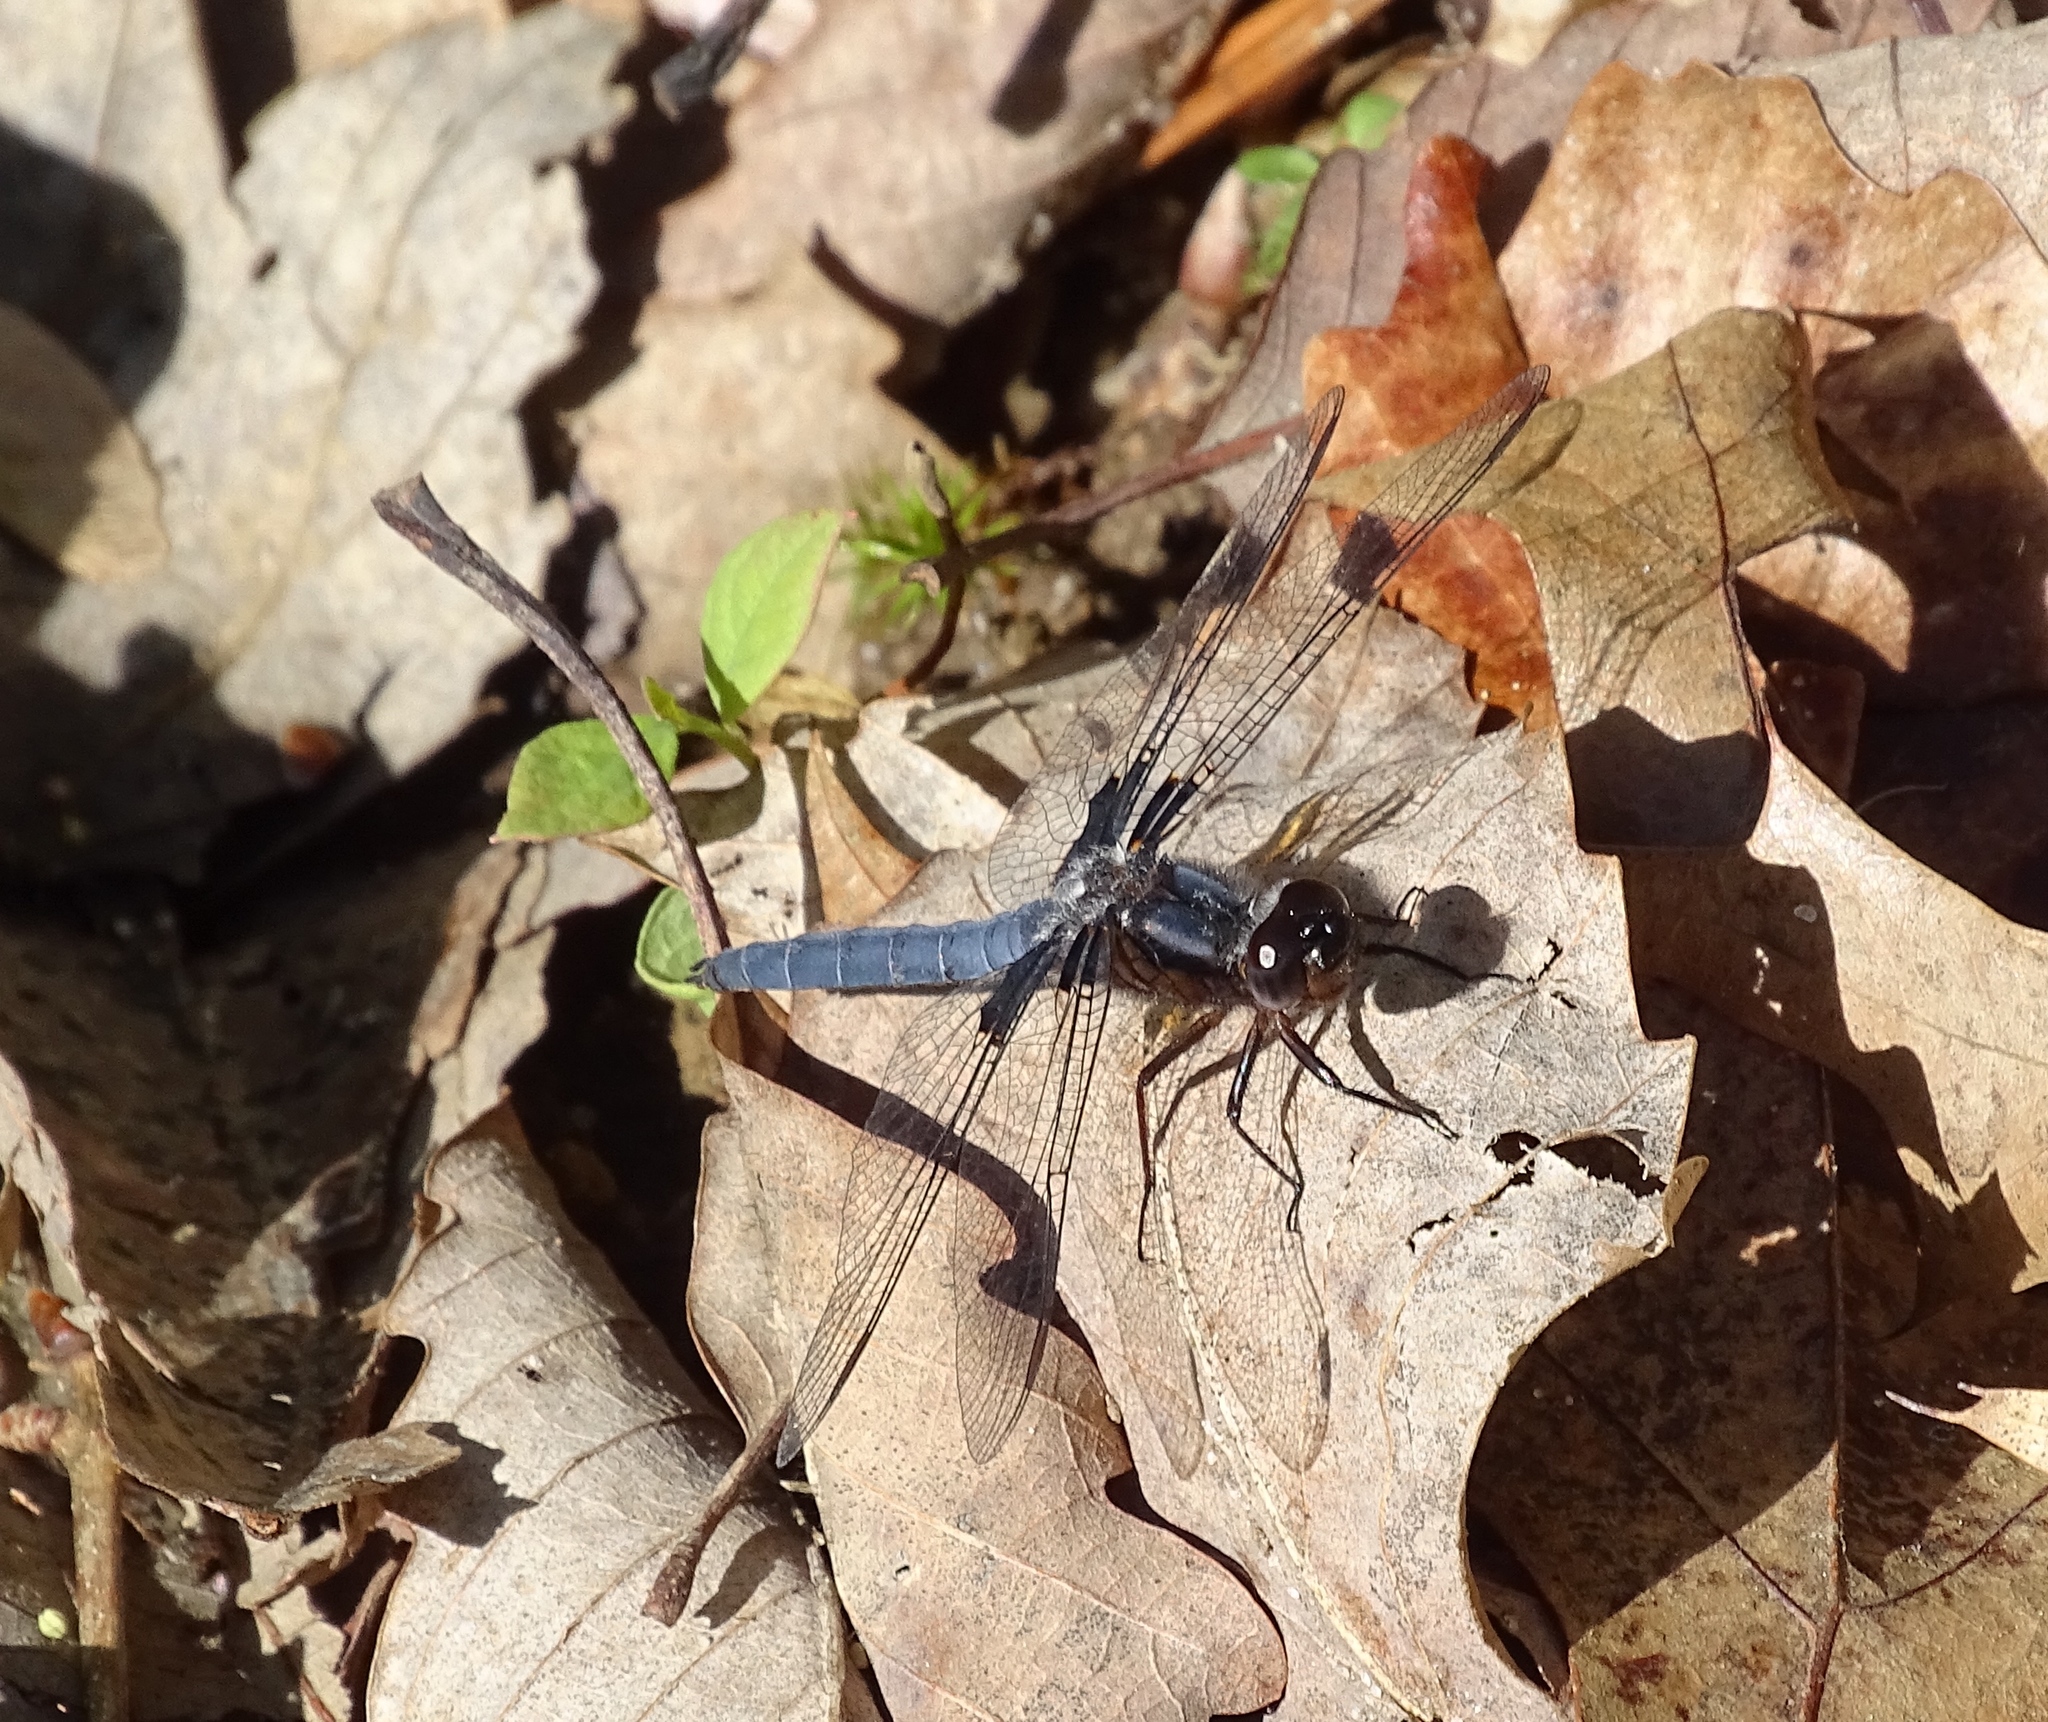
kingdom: Animalia
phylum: Arthropoda
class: Insecta
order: Odonata
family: Libellulidae
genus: Ladona
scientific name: Ladona deplanata
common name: Blue corporal
